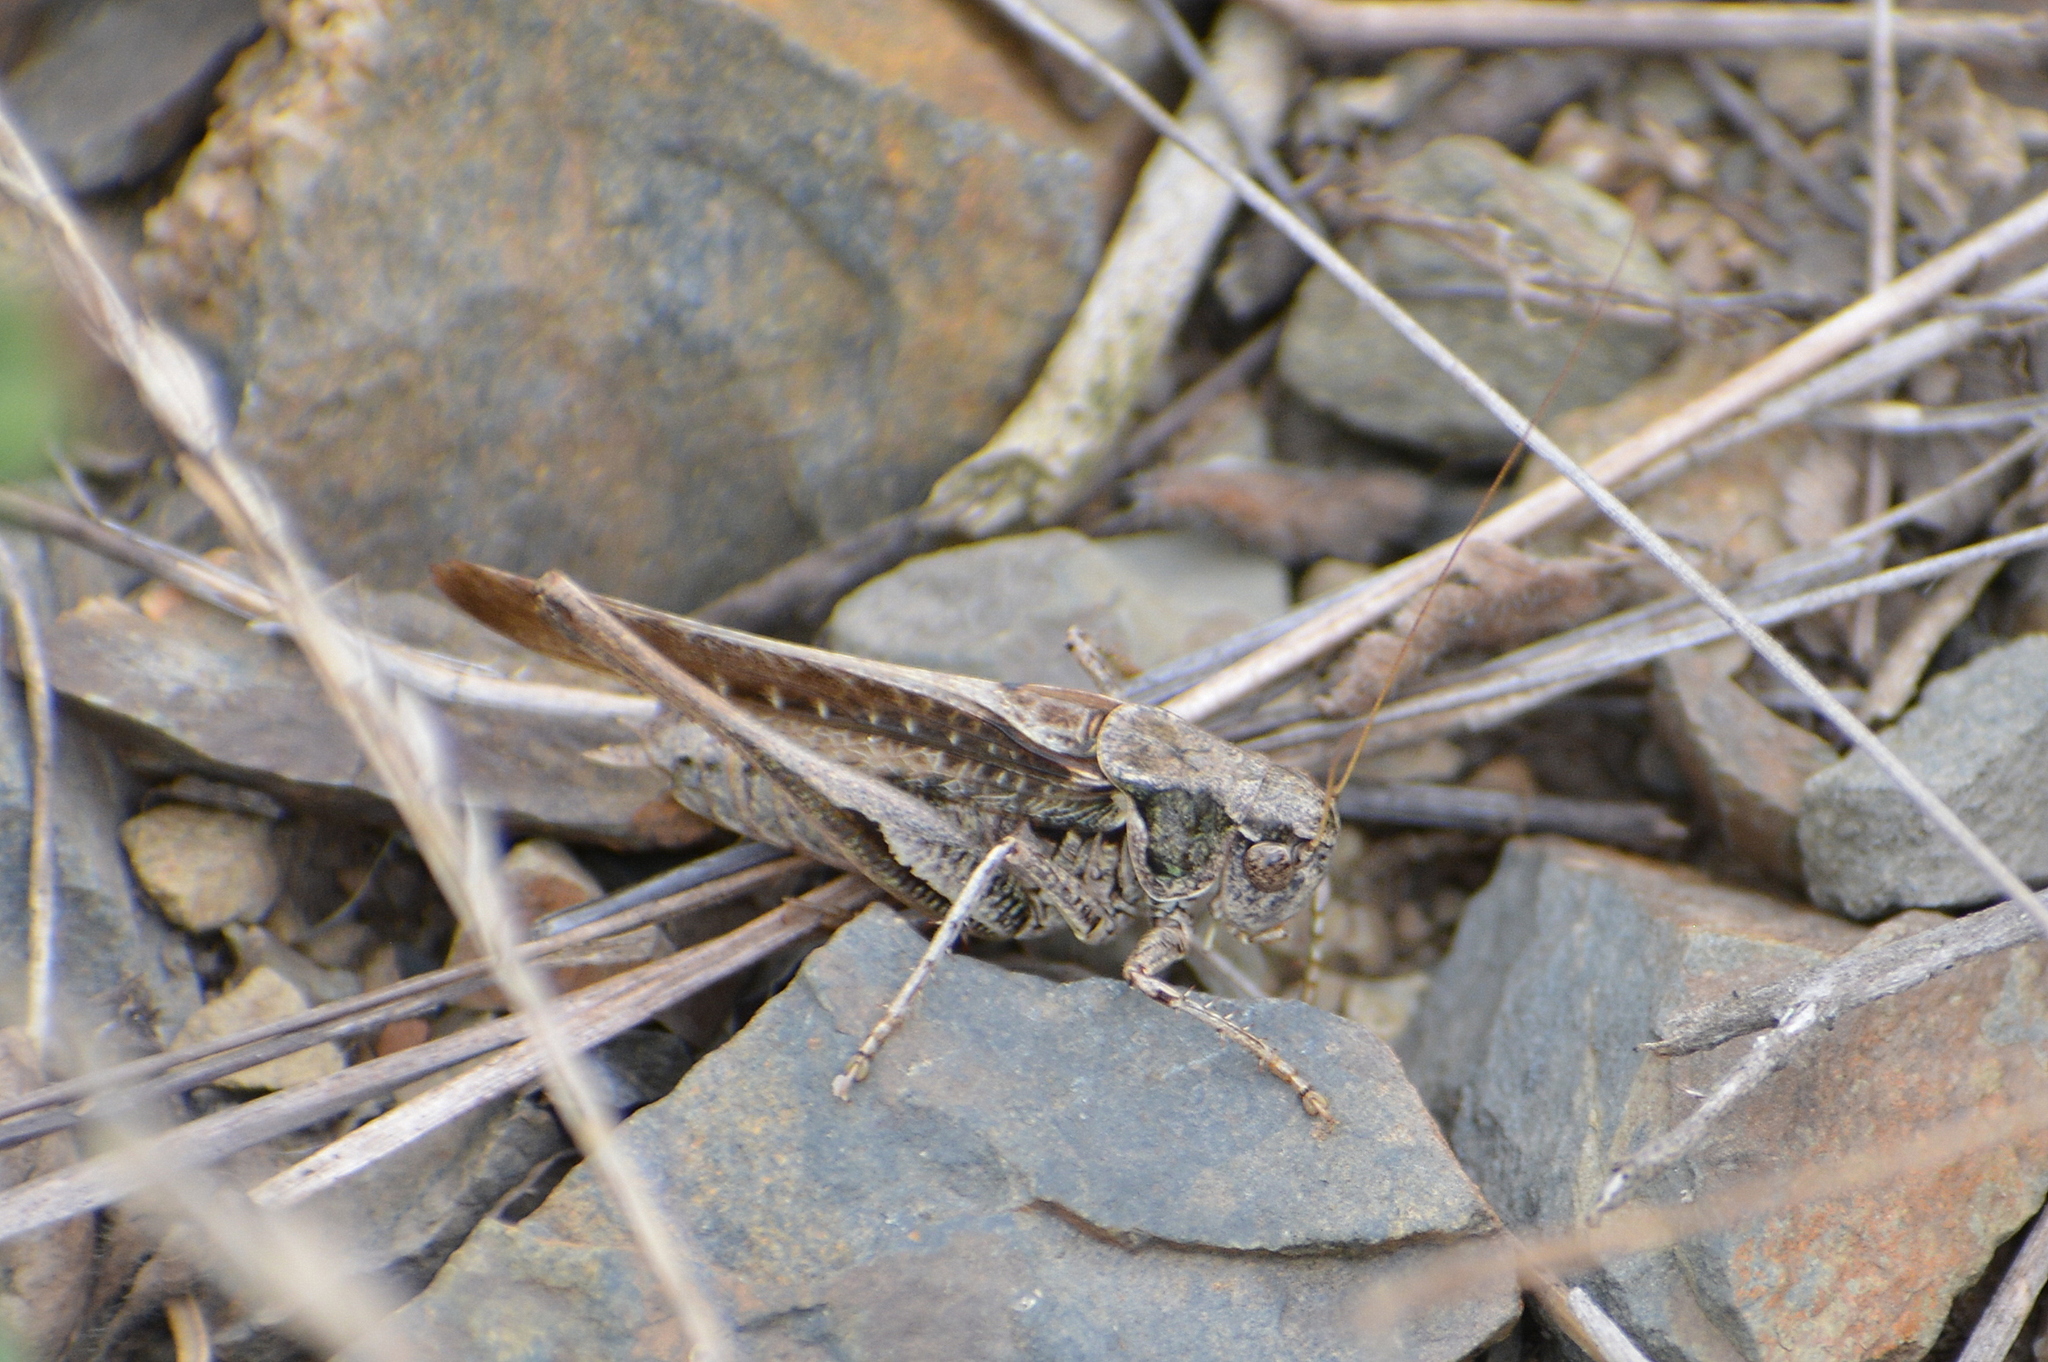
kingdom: Animalia
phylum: Arthropoda
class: Insecta
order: Orthoptera
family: Tettigoniidae
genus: Platycleis
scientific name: Platycleis albopunctata
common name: Grey bush-cricket
